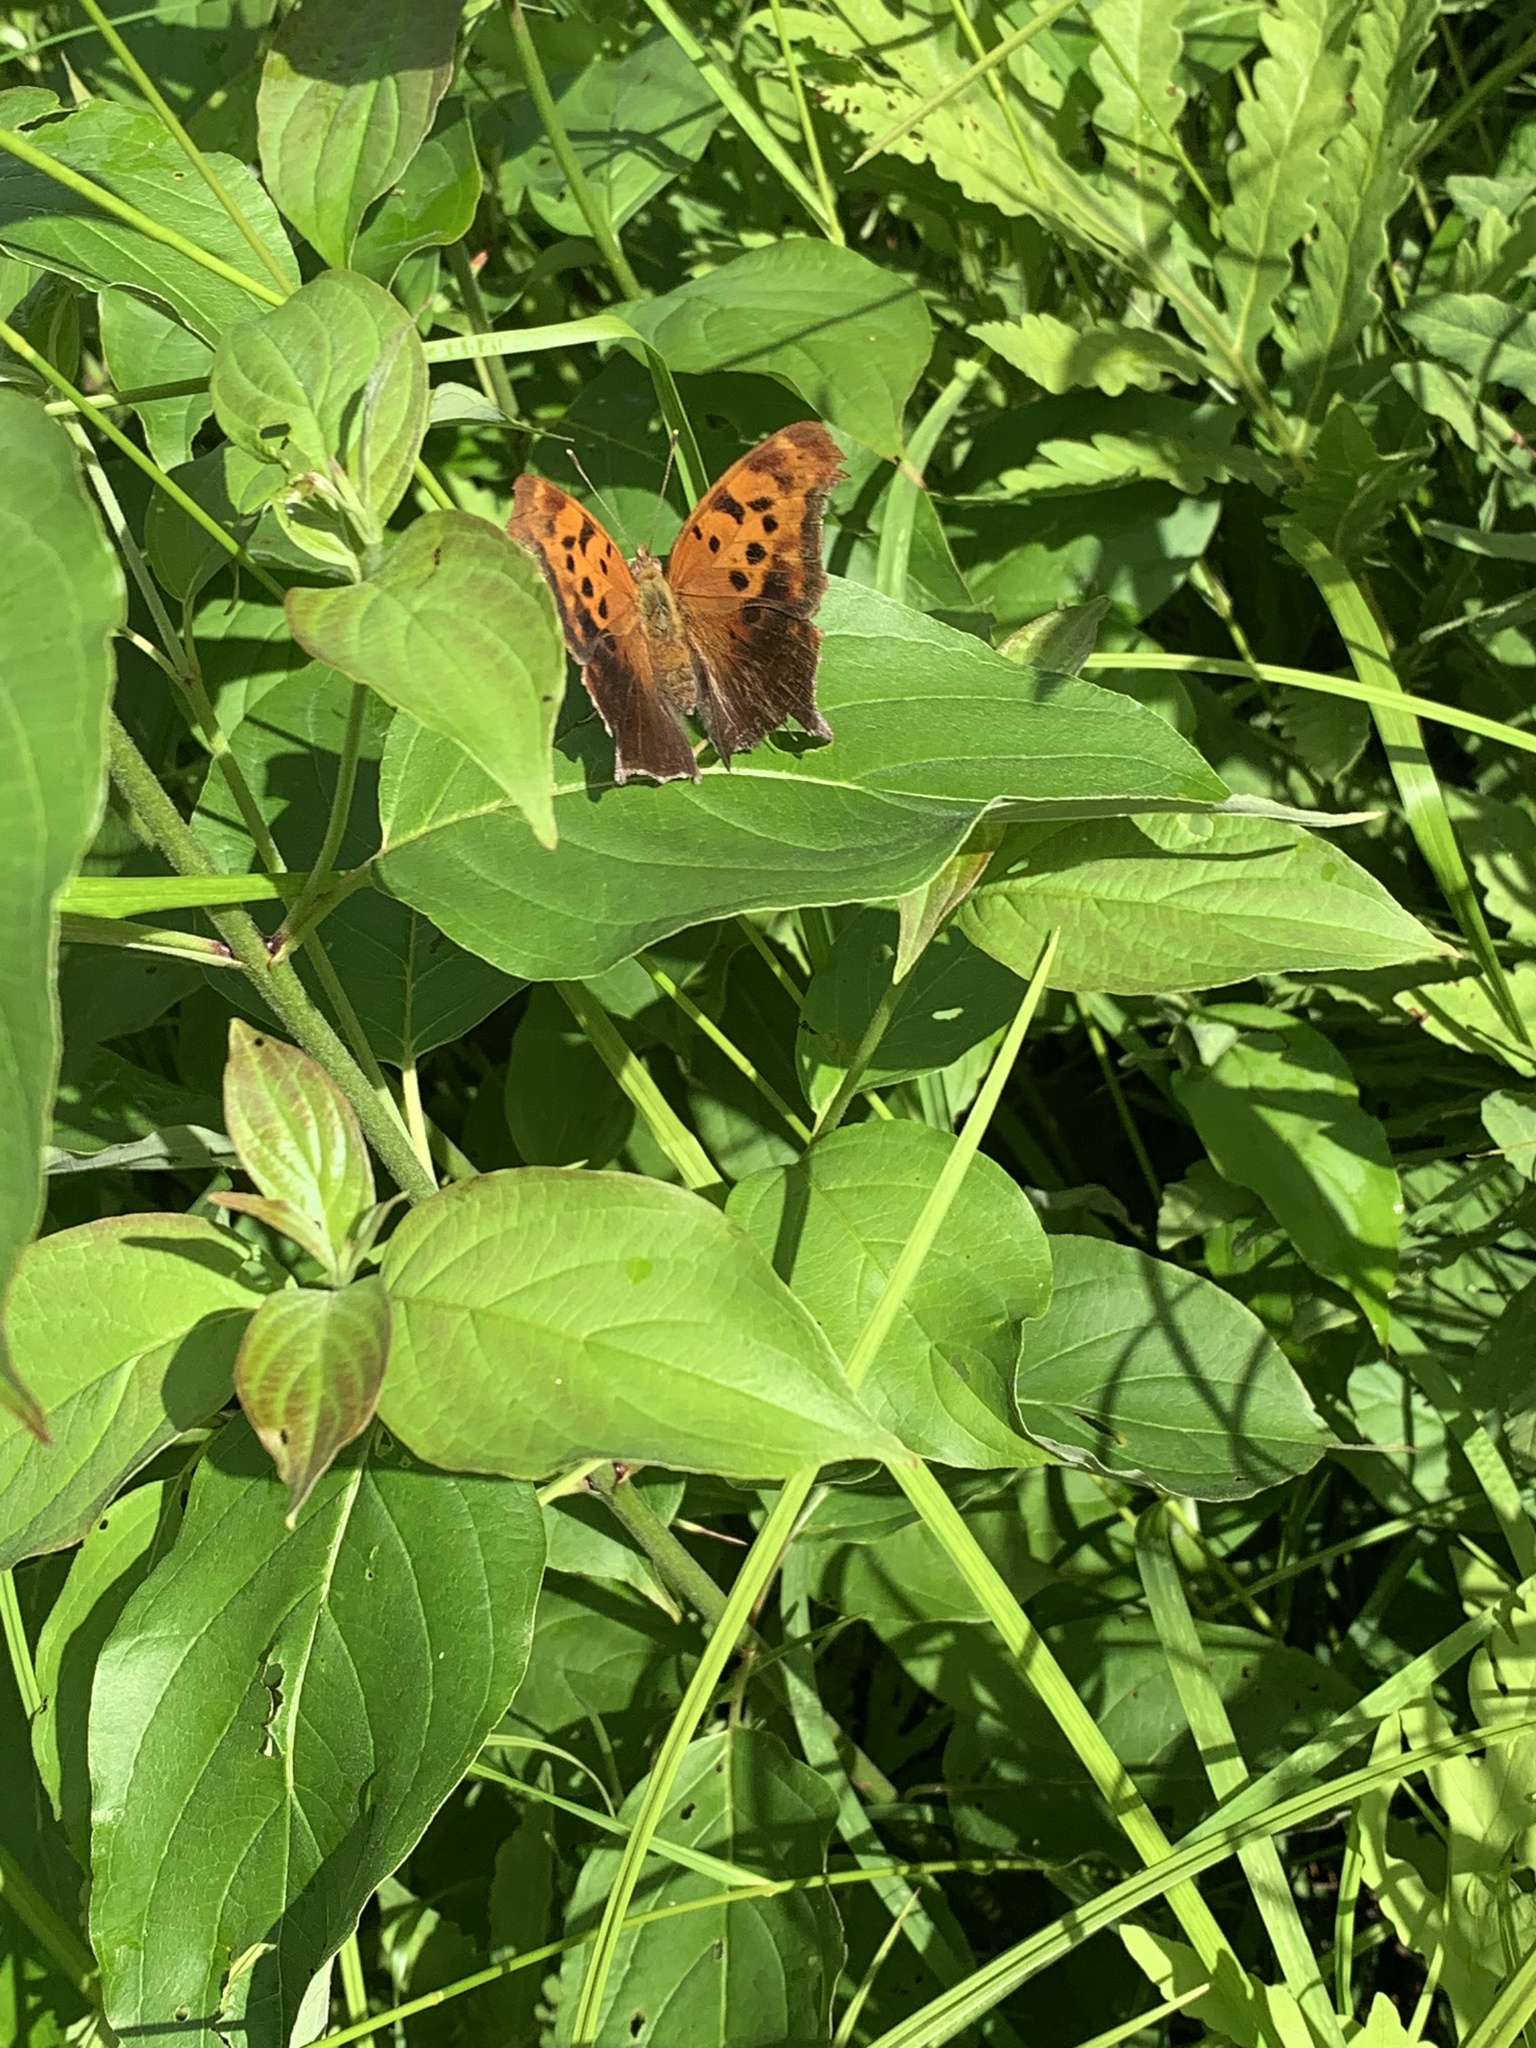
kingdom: Animalia
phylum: Arthropoda
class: Insecta
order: Lepidoptera
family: Nymphalidae
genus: Polygonia
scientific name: Polygonia interrogationis
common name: Question mark
